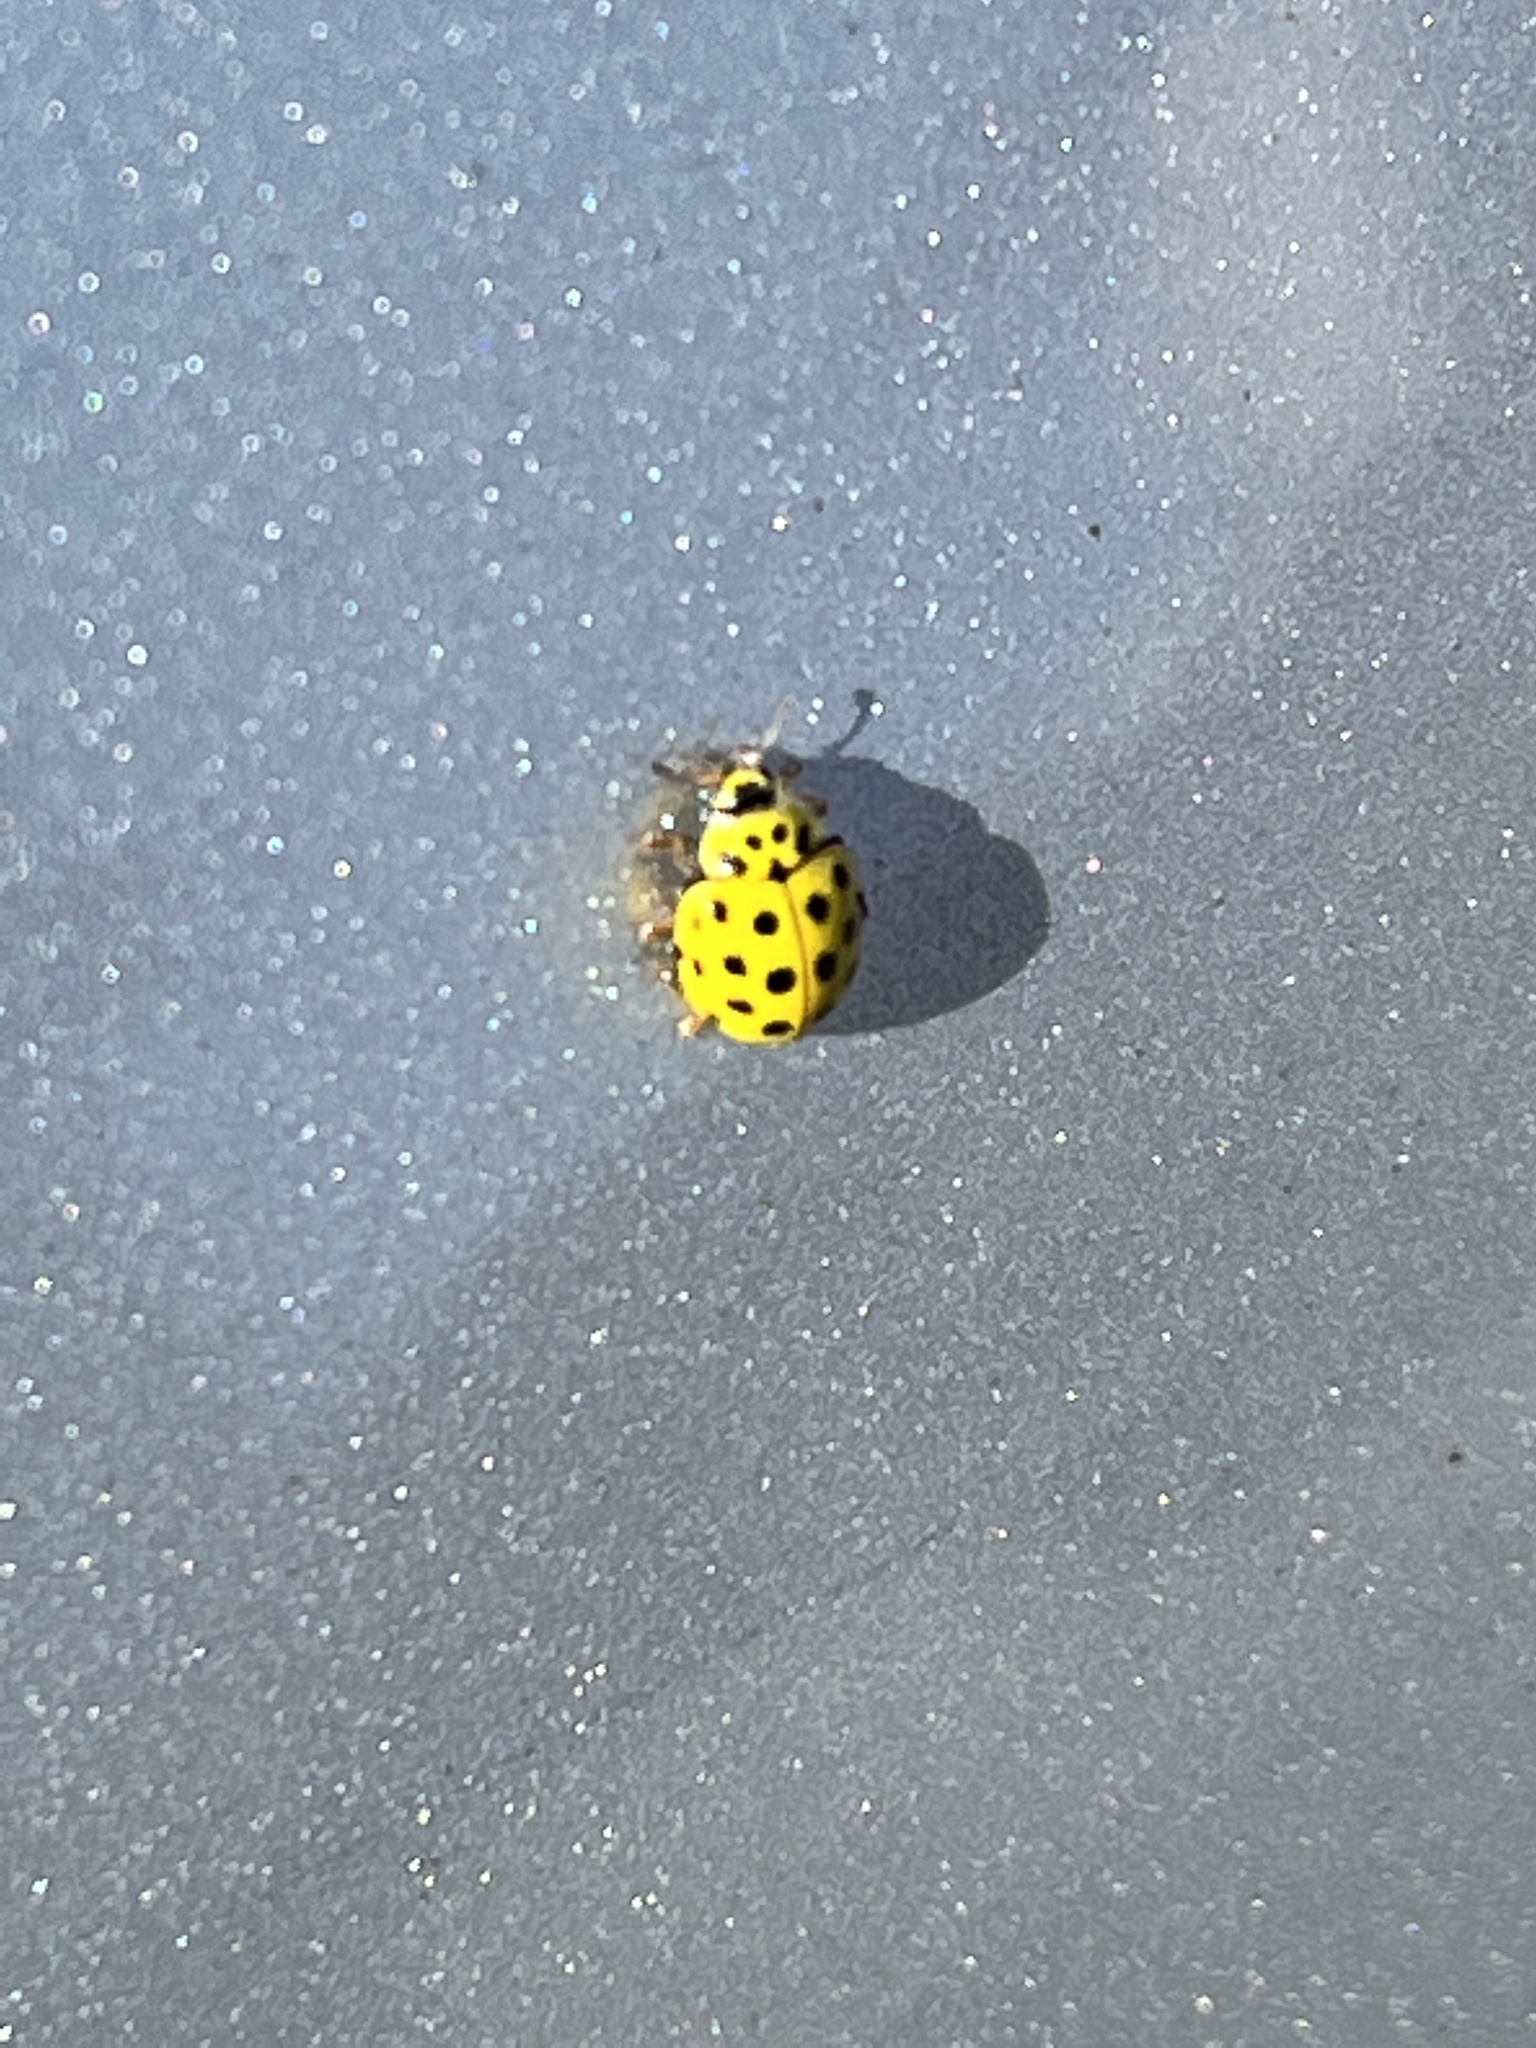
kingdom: Animalia
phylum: Arthropoda
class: Insecta
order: Coleoptera
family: Coccinellidae
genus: Psyllobora
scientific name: Psyllobora vigintiduopunctata
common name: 22-spot ladybird
